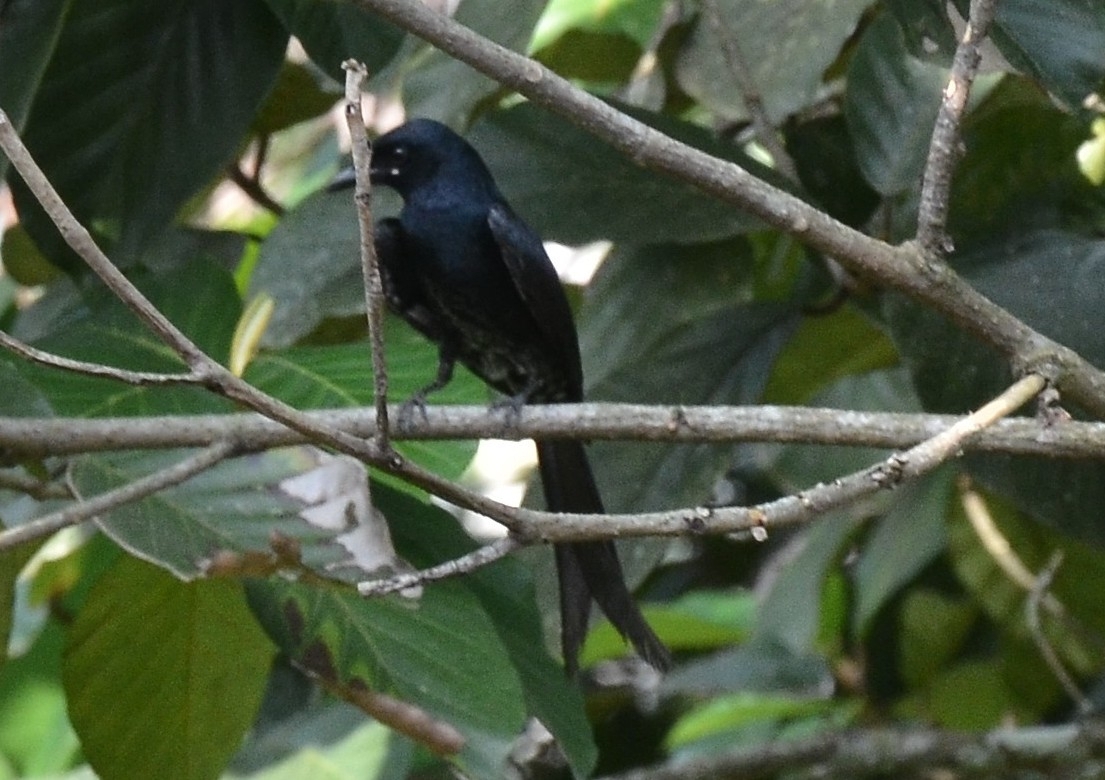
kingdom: Animalia
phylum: Chordata
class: Aves
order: Passeriformes
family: Dicruridae
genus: Dicrurus
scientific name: Dicrurus macrocercus
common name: Black drongo
